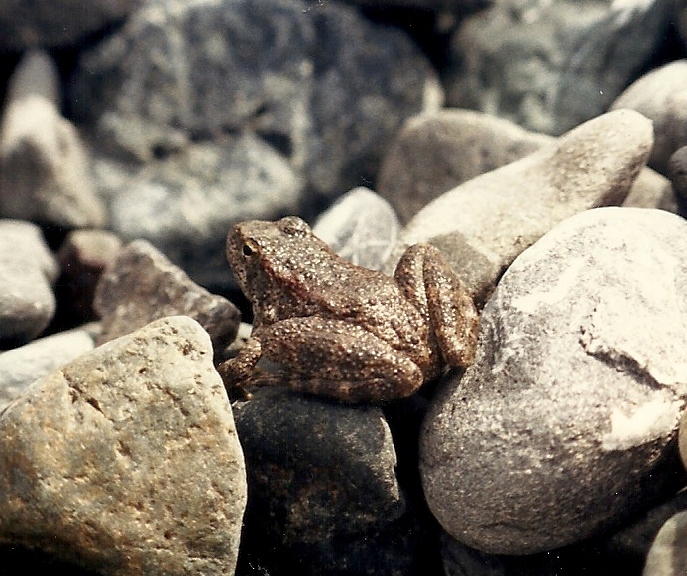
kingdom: Animalia
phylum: Chordata
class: Amphibia
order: Anura
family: Ranidae
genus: Rana
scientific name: Rana boylii
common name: Foothill yellow-legged frog
